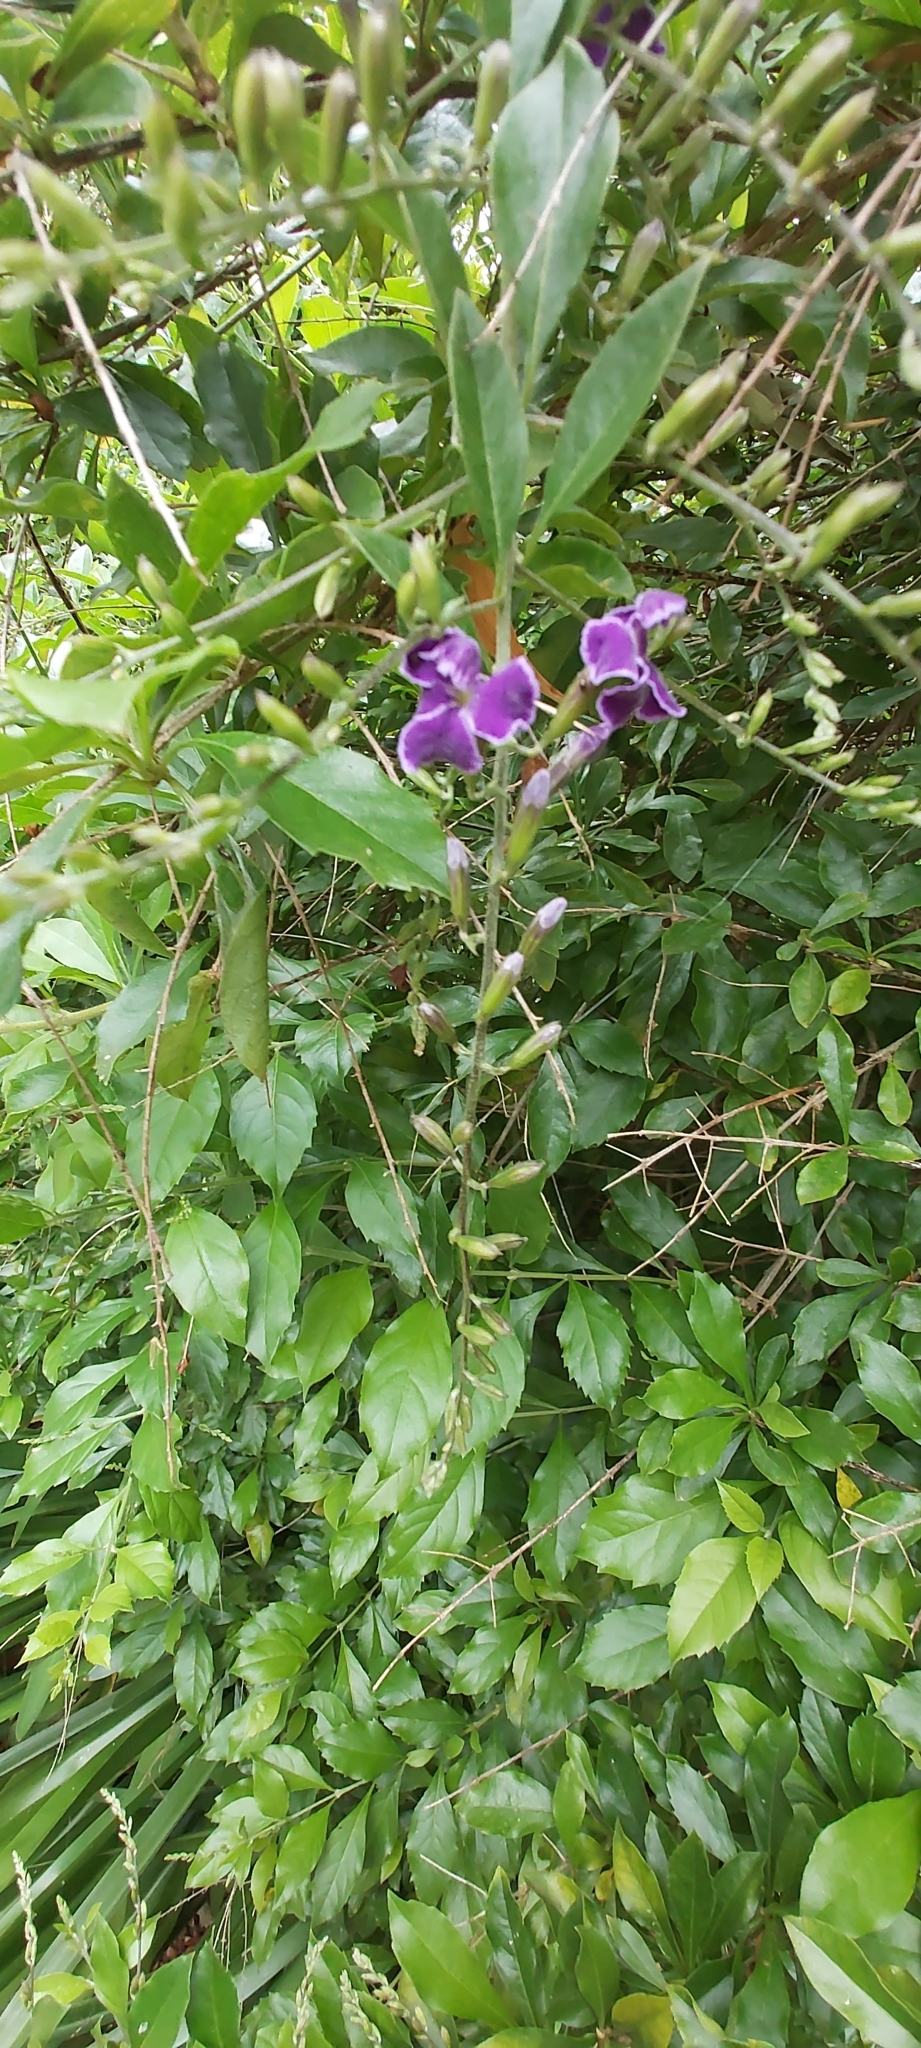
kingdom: Plantae
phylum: Tracheophyta
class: Magnoliopsida
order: Lamiales
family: Verbenaceae
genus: Duranta
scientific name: Duranta erecta
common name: Golden dewdrops
